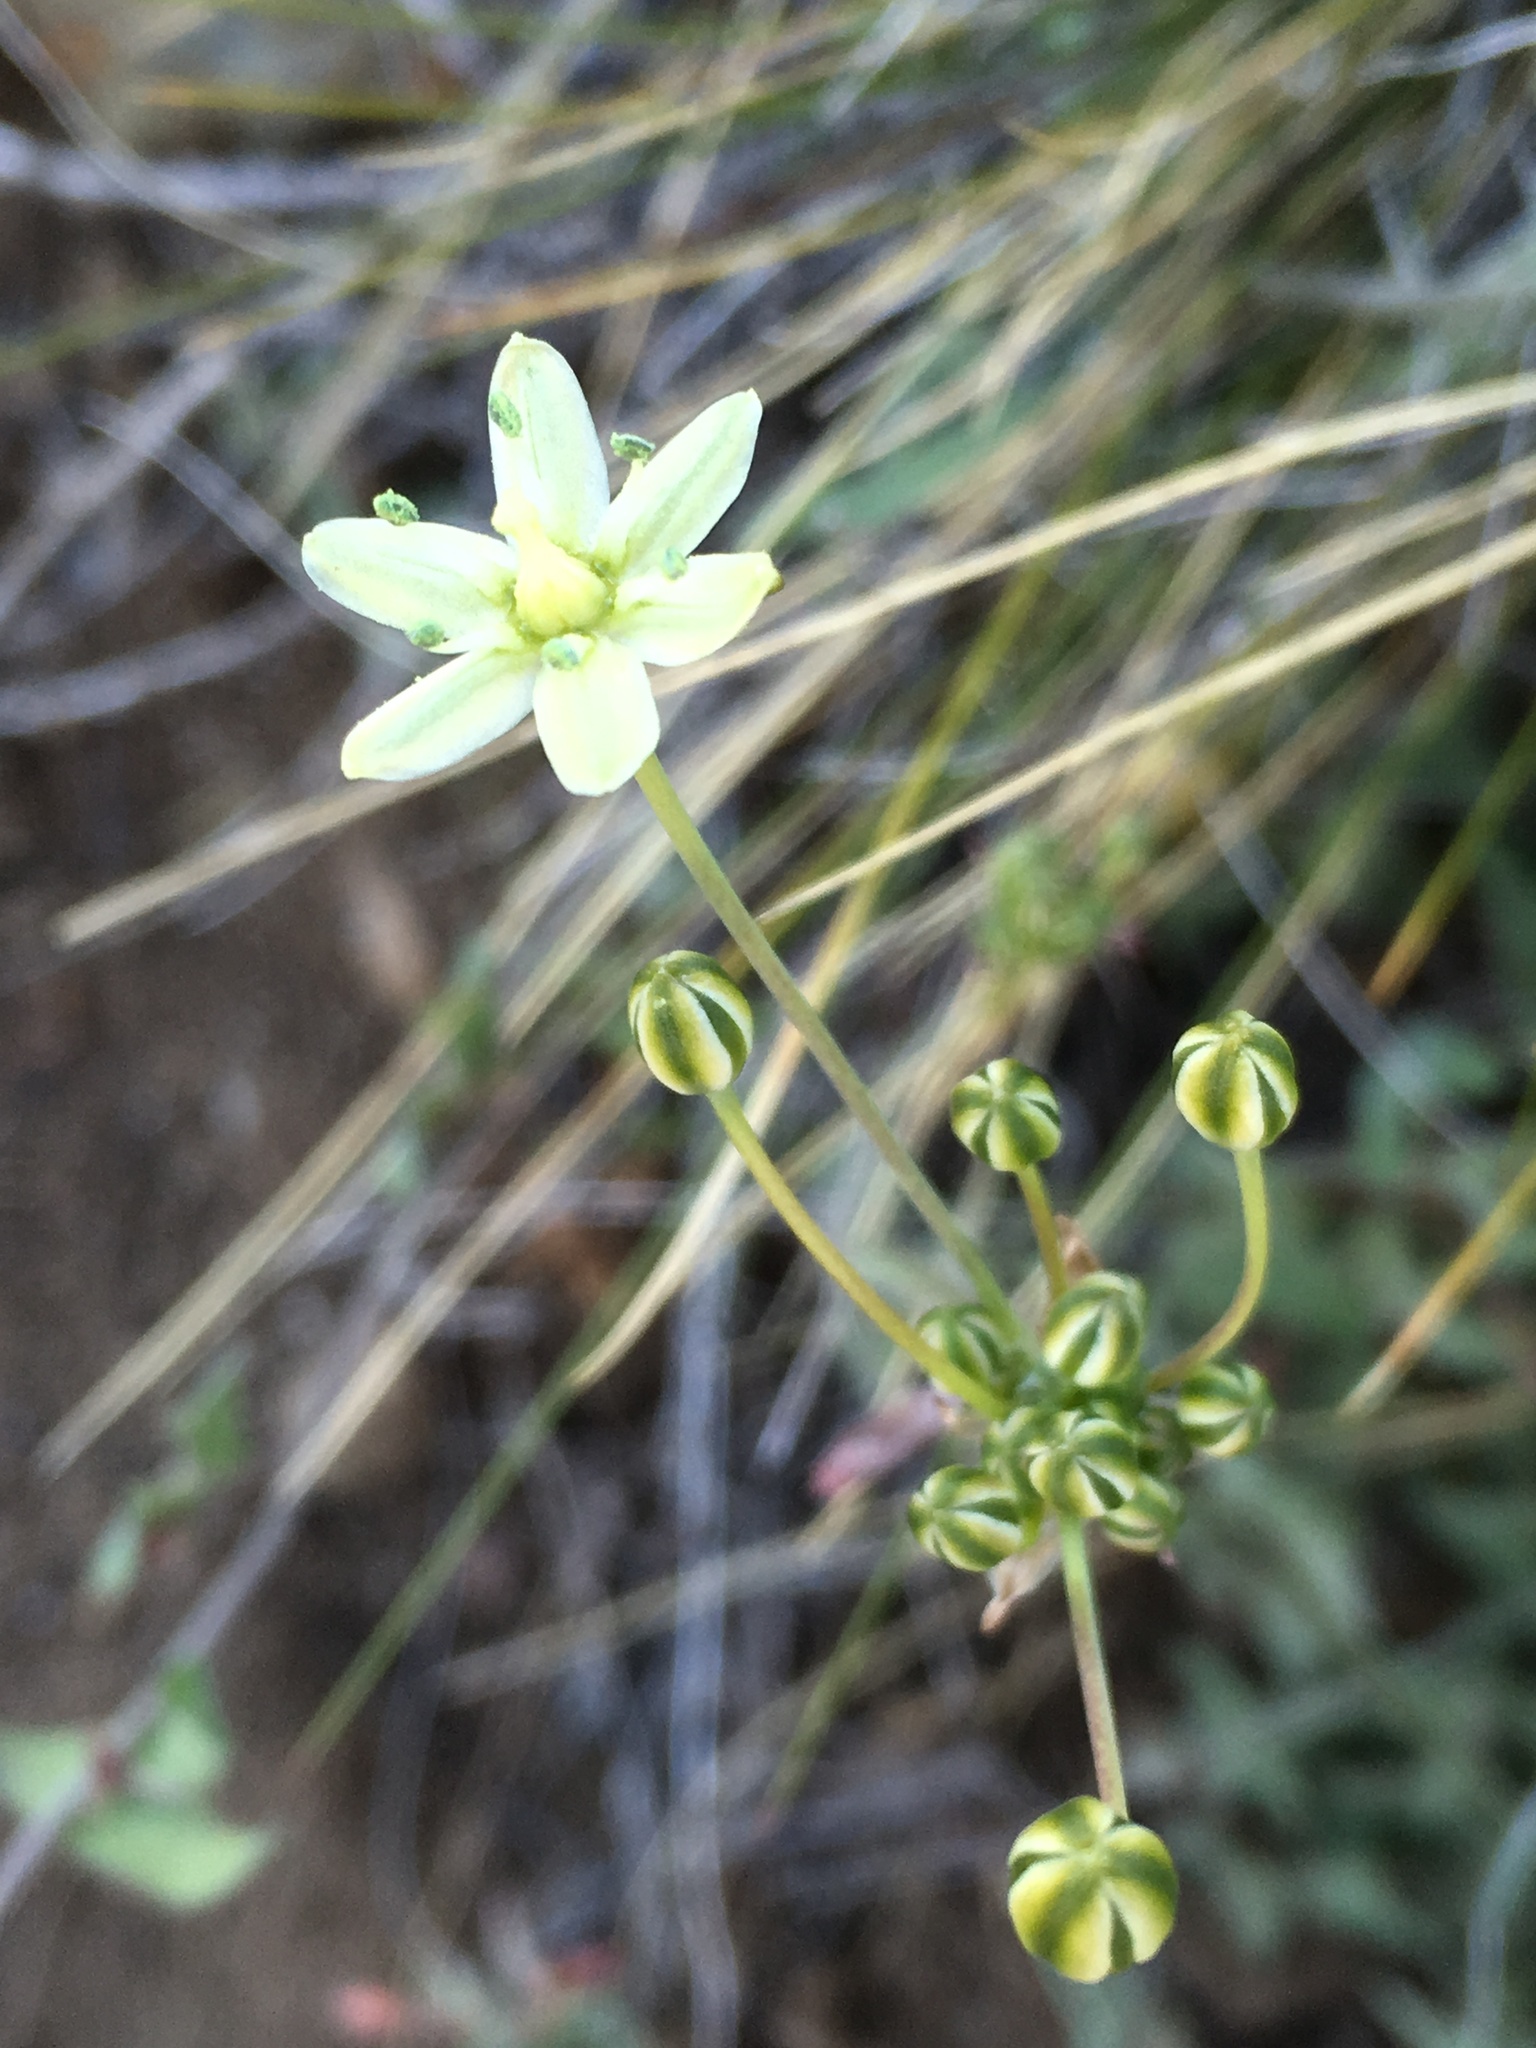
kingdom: Plantae
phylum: Tracheophyta
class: Liliopsida
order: Asparagales
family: Asparagaceae
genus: Muilla
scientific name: Muilla maritima
